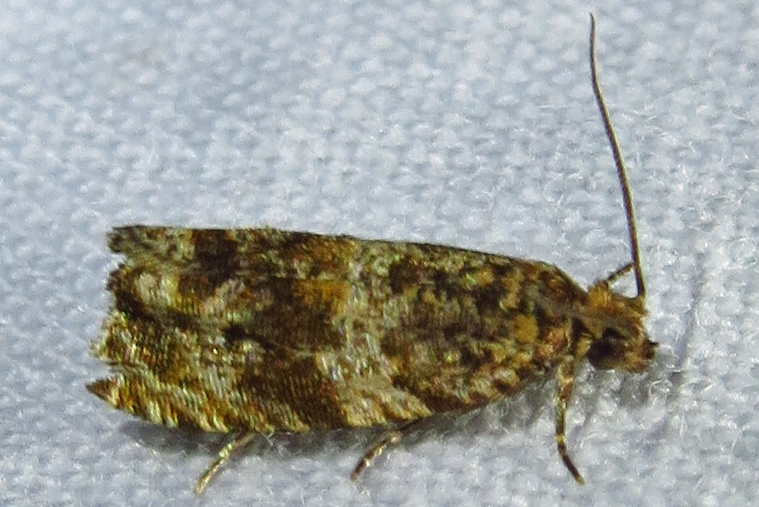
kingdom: Animalia
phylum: Arthropoda
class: Insecta
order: Lepidoptera
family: Tortricidae
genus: Celypha
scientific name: Celypha cespitana
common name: Thyme marble
